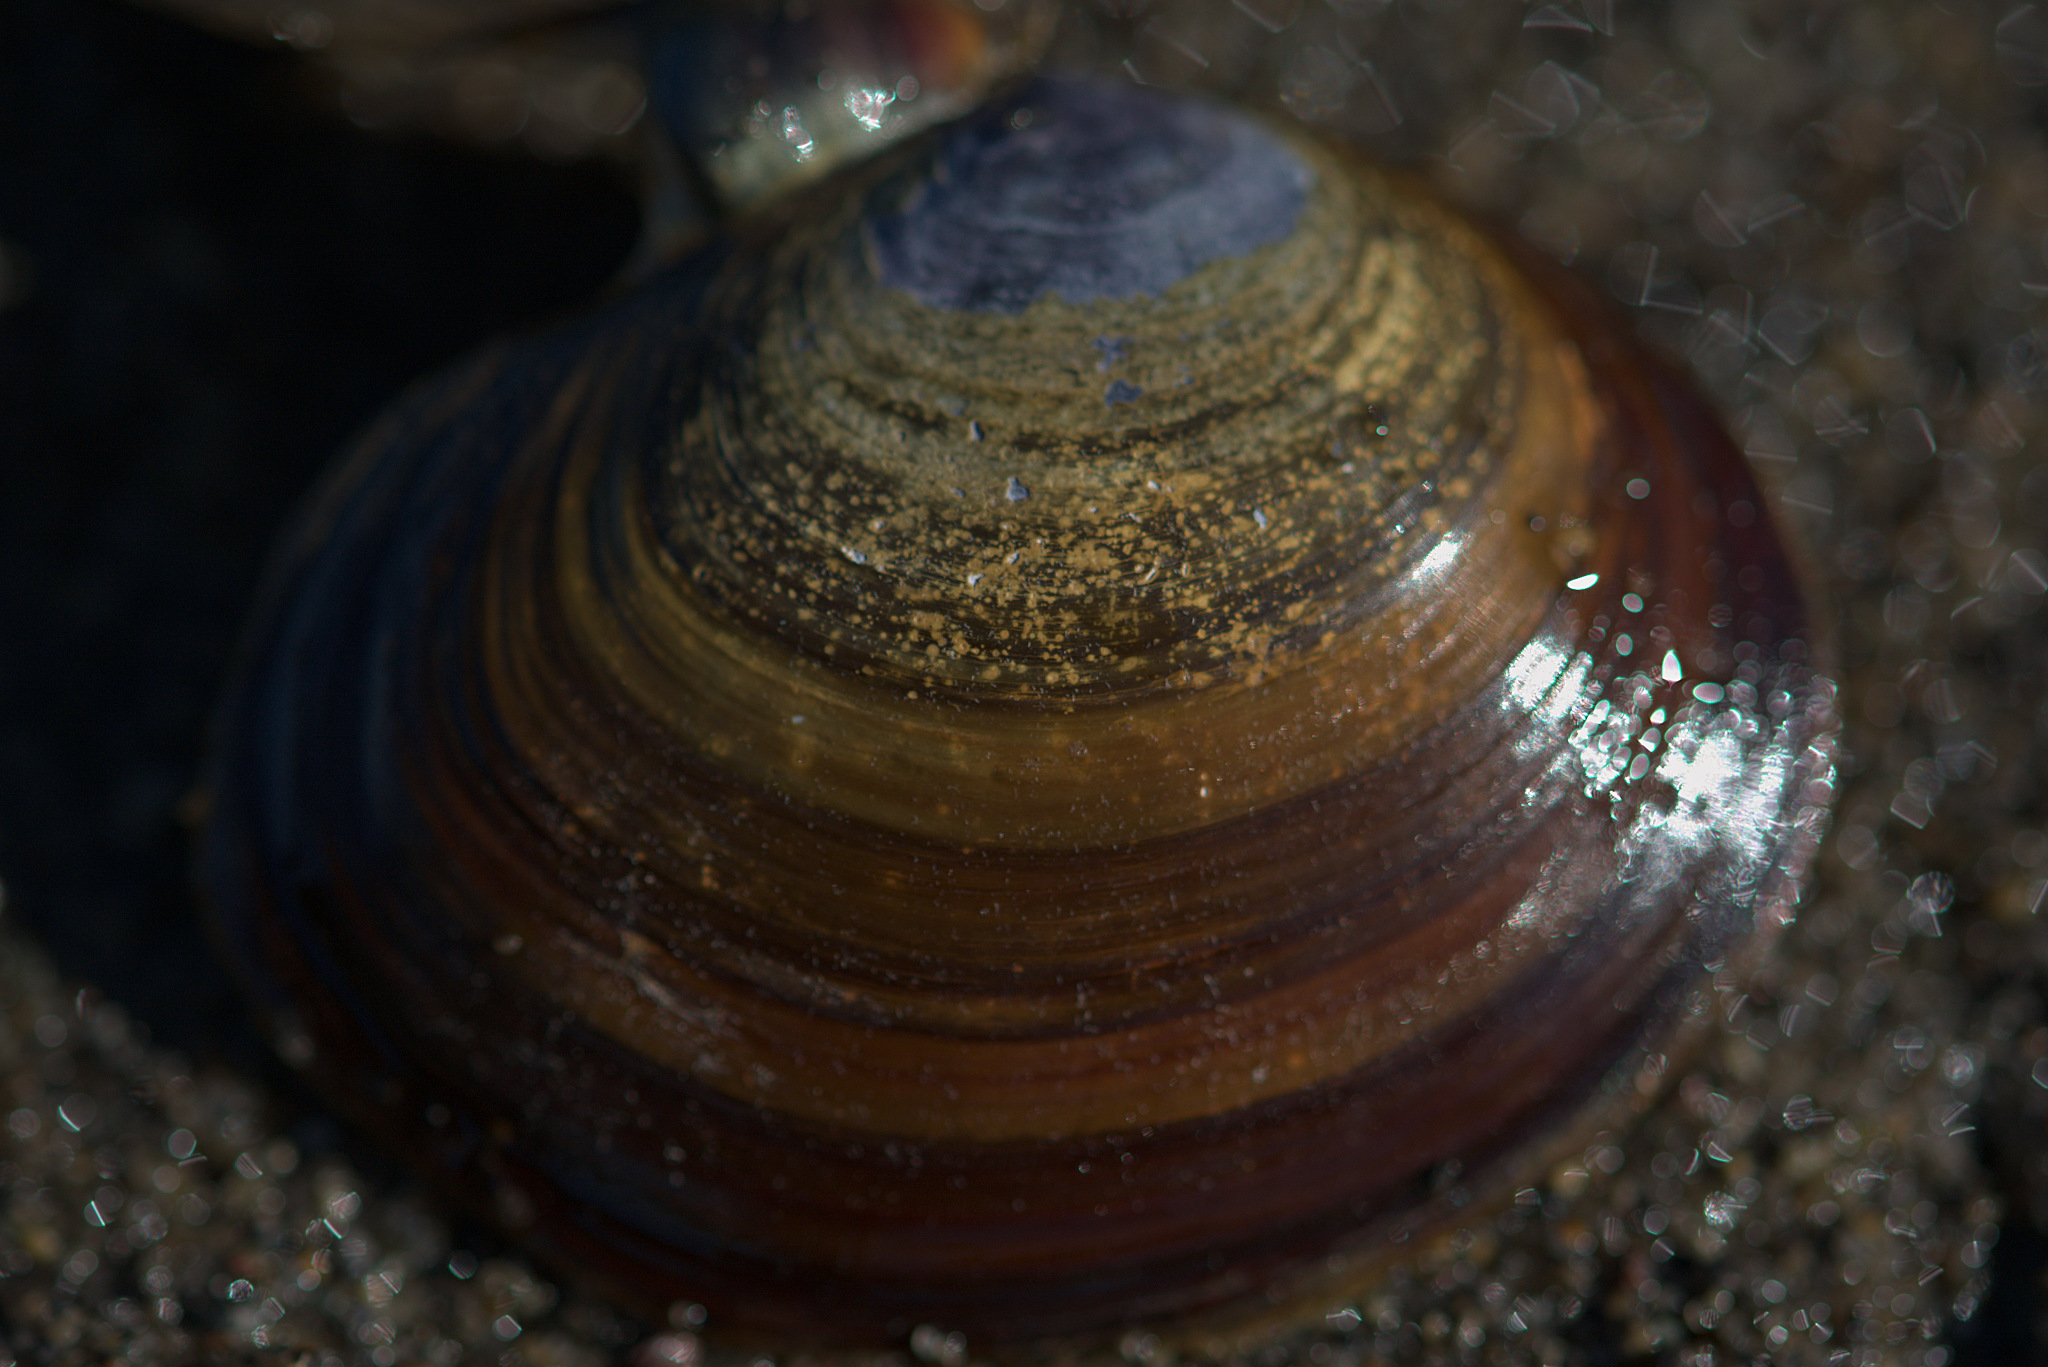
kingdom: Animalia
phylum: Mollusca
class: Bivalvia
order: Cardiida
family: Psammobiidae
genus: Nuttallia
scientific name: Nuttallia obscurata
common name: Purple mahogany-clam
